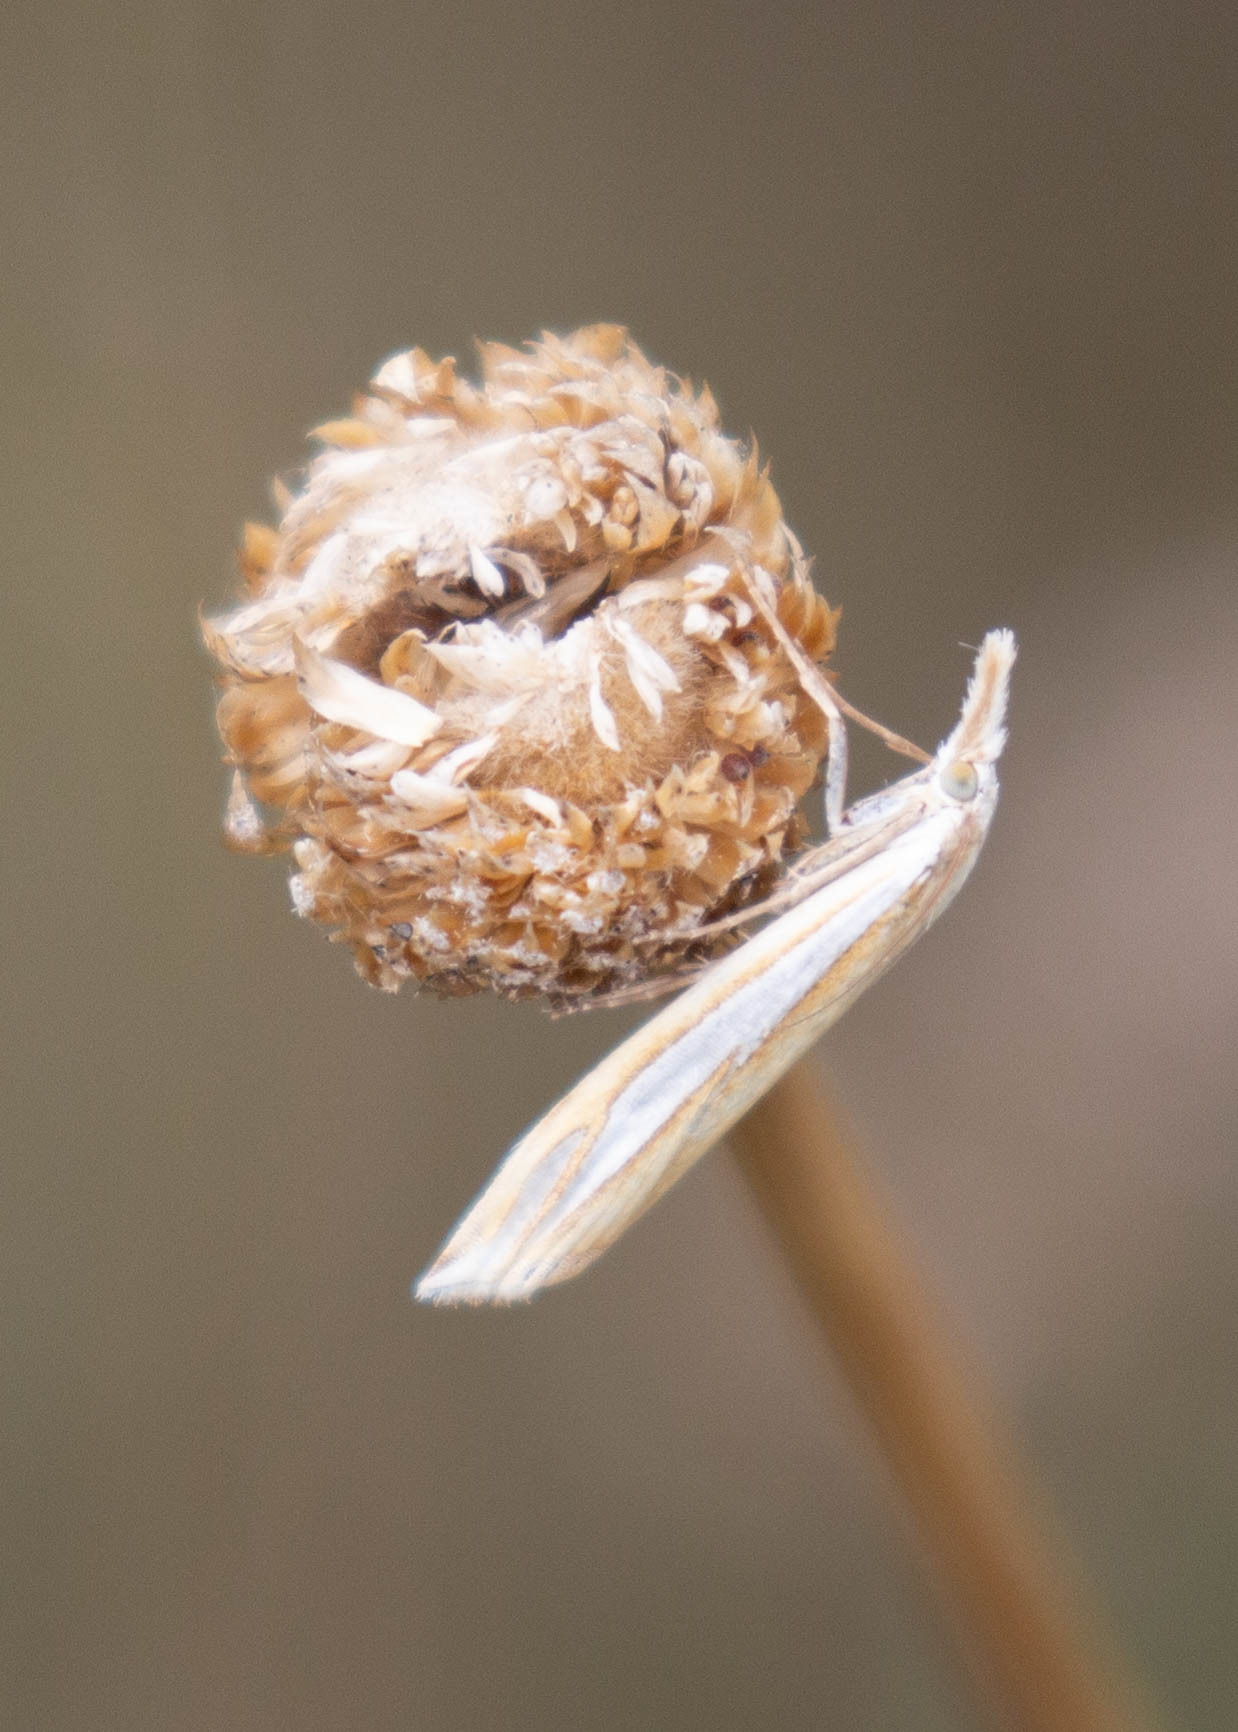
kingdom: Animalia
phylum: Arthropoda
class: Insecta
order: Lepidoptera
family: Crambidae
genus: Crambus
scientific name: Crambus satrapellus
